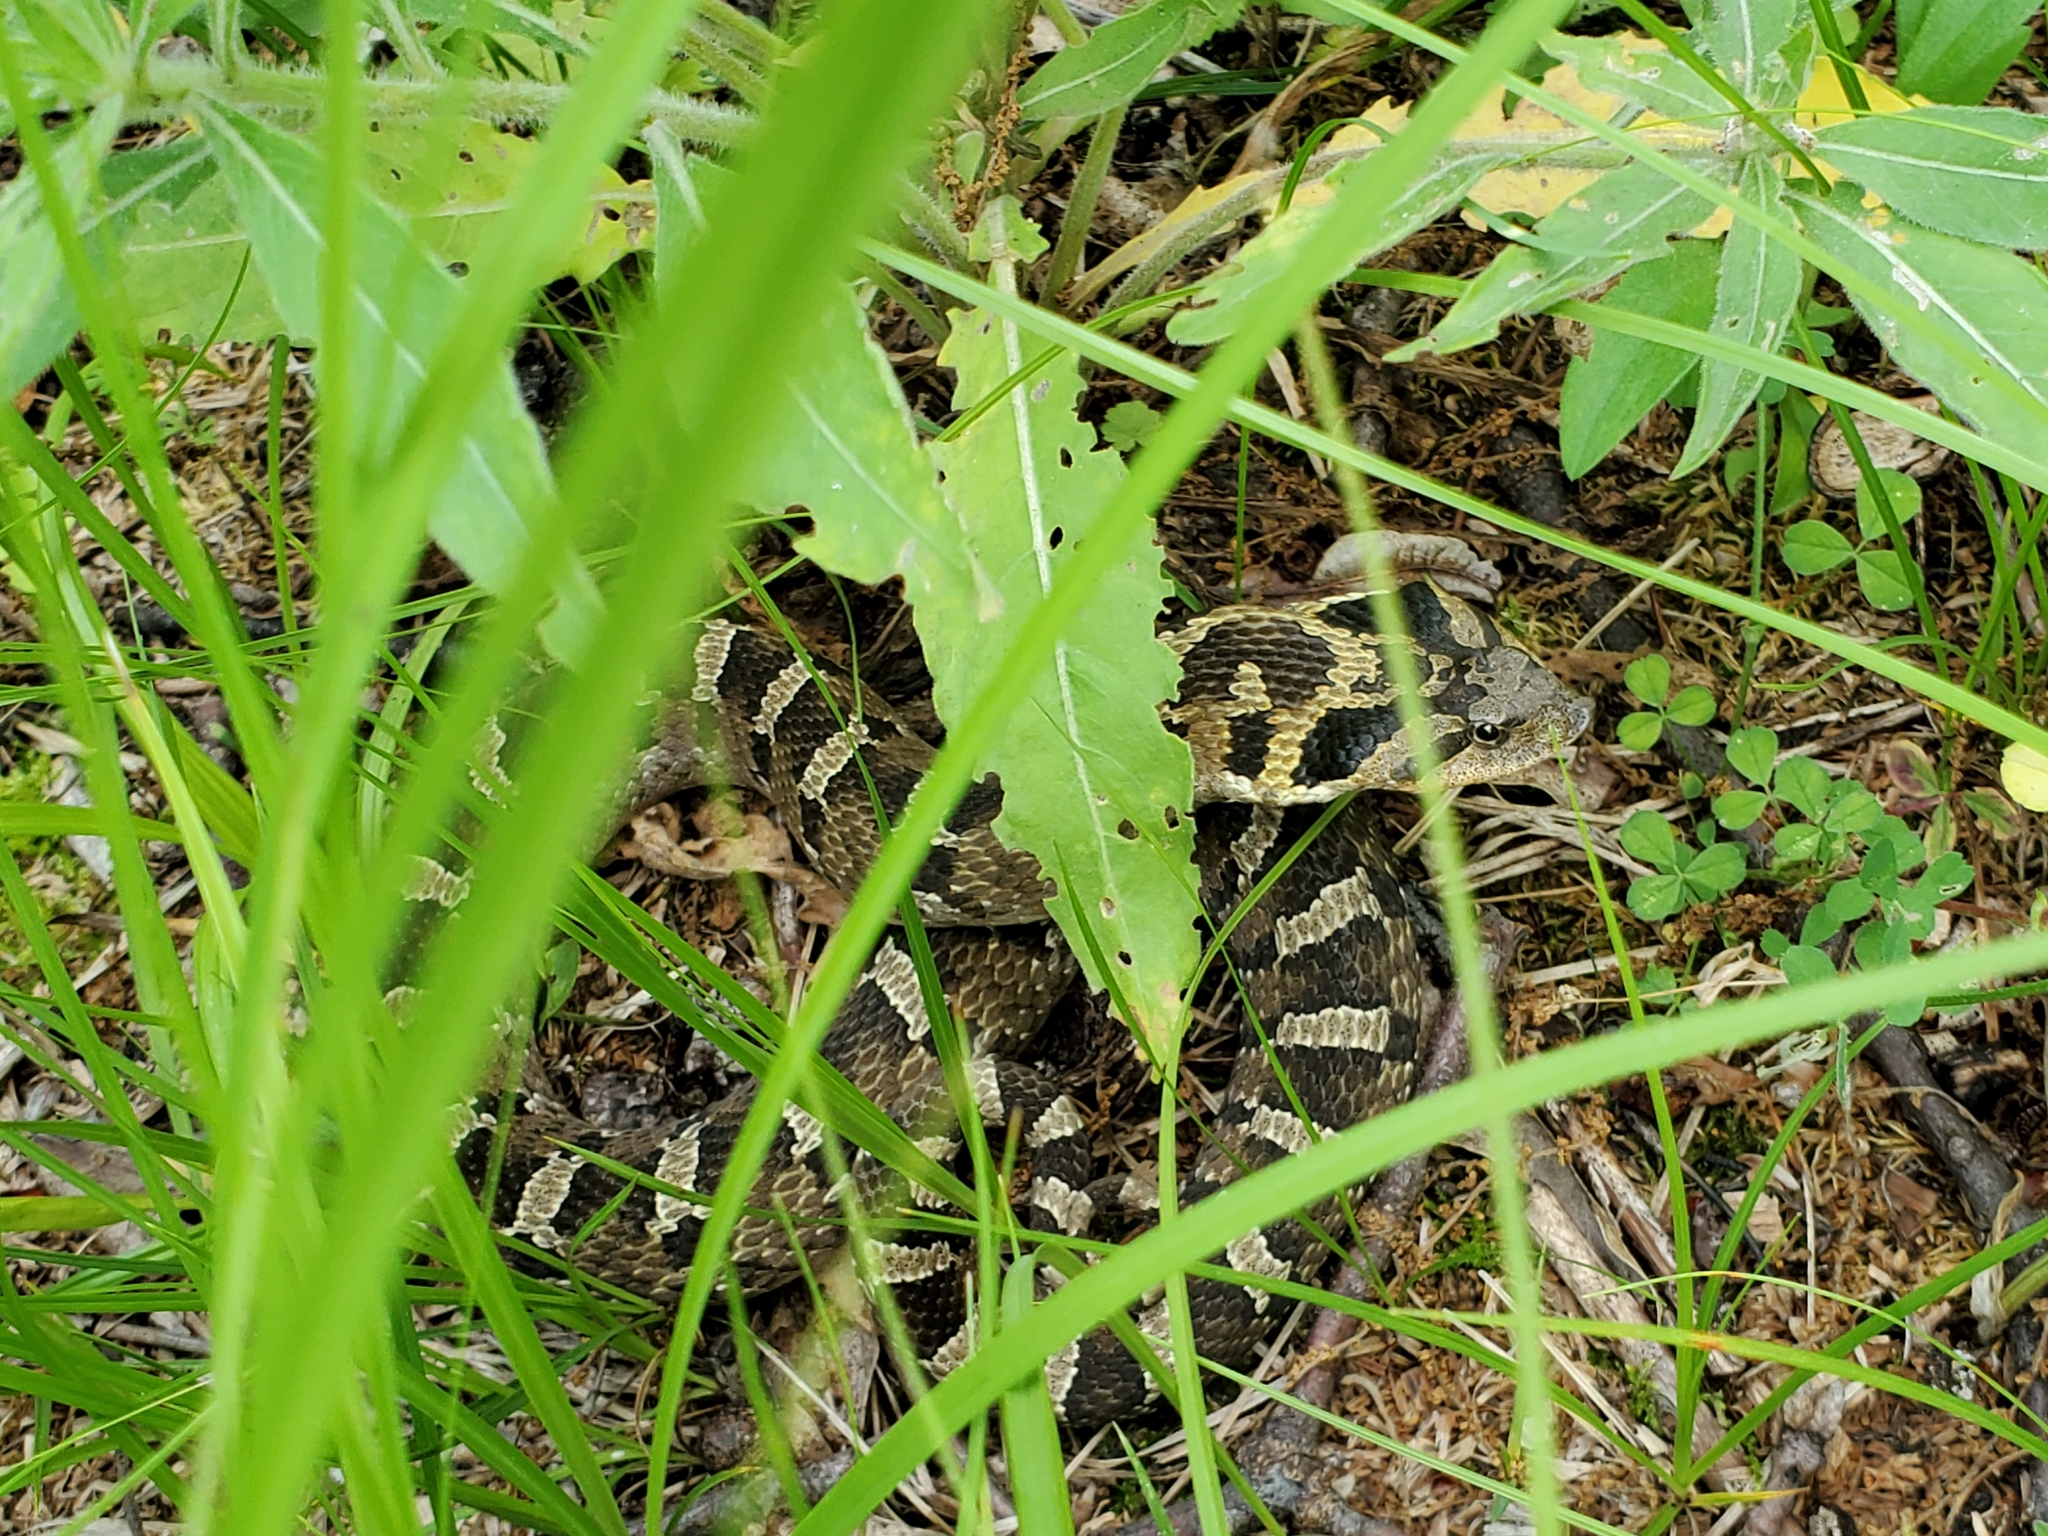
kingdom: Animalia
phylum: Chordata
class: Squamata
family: Colubridae
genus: Heterodon
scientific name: Heterodon platirhinos
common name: Eastern hognose snake
